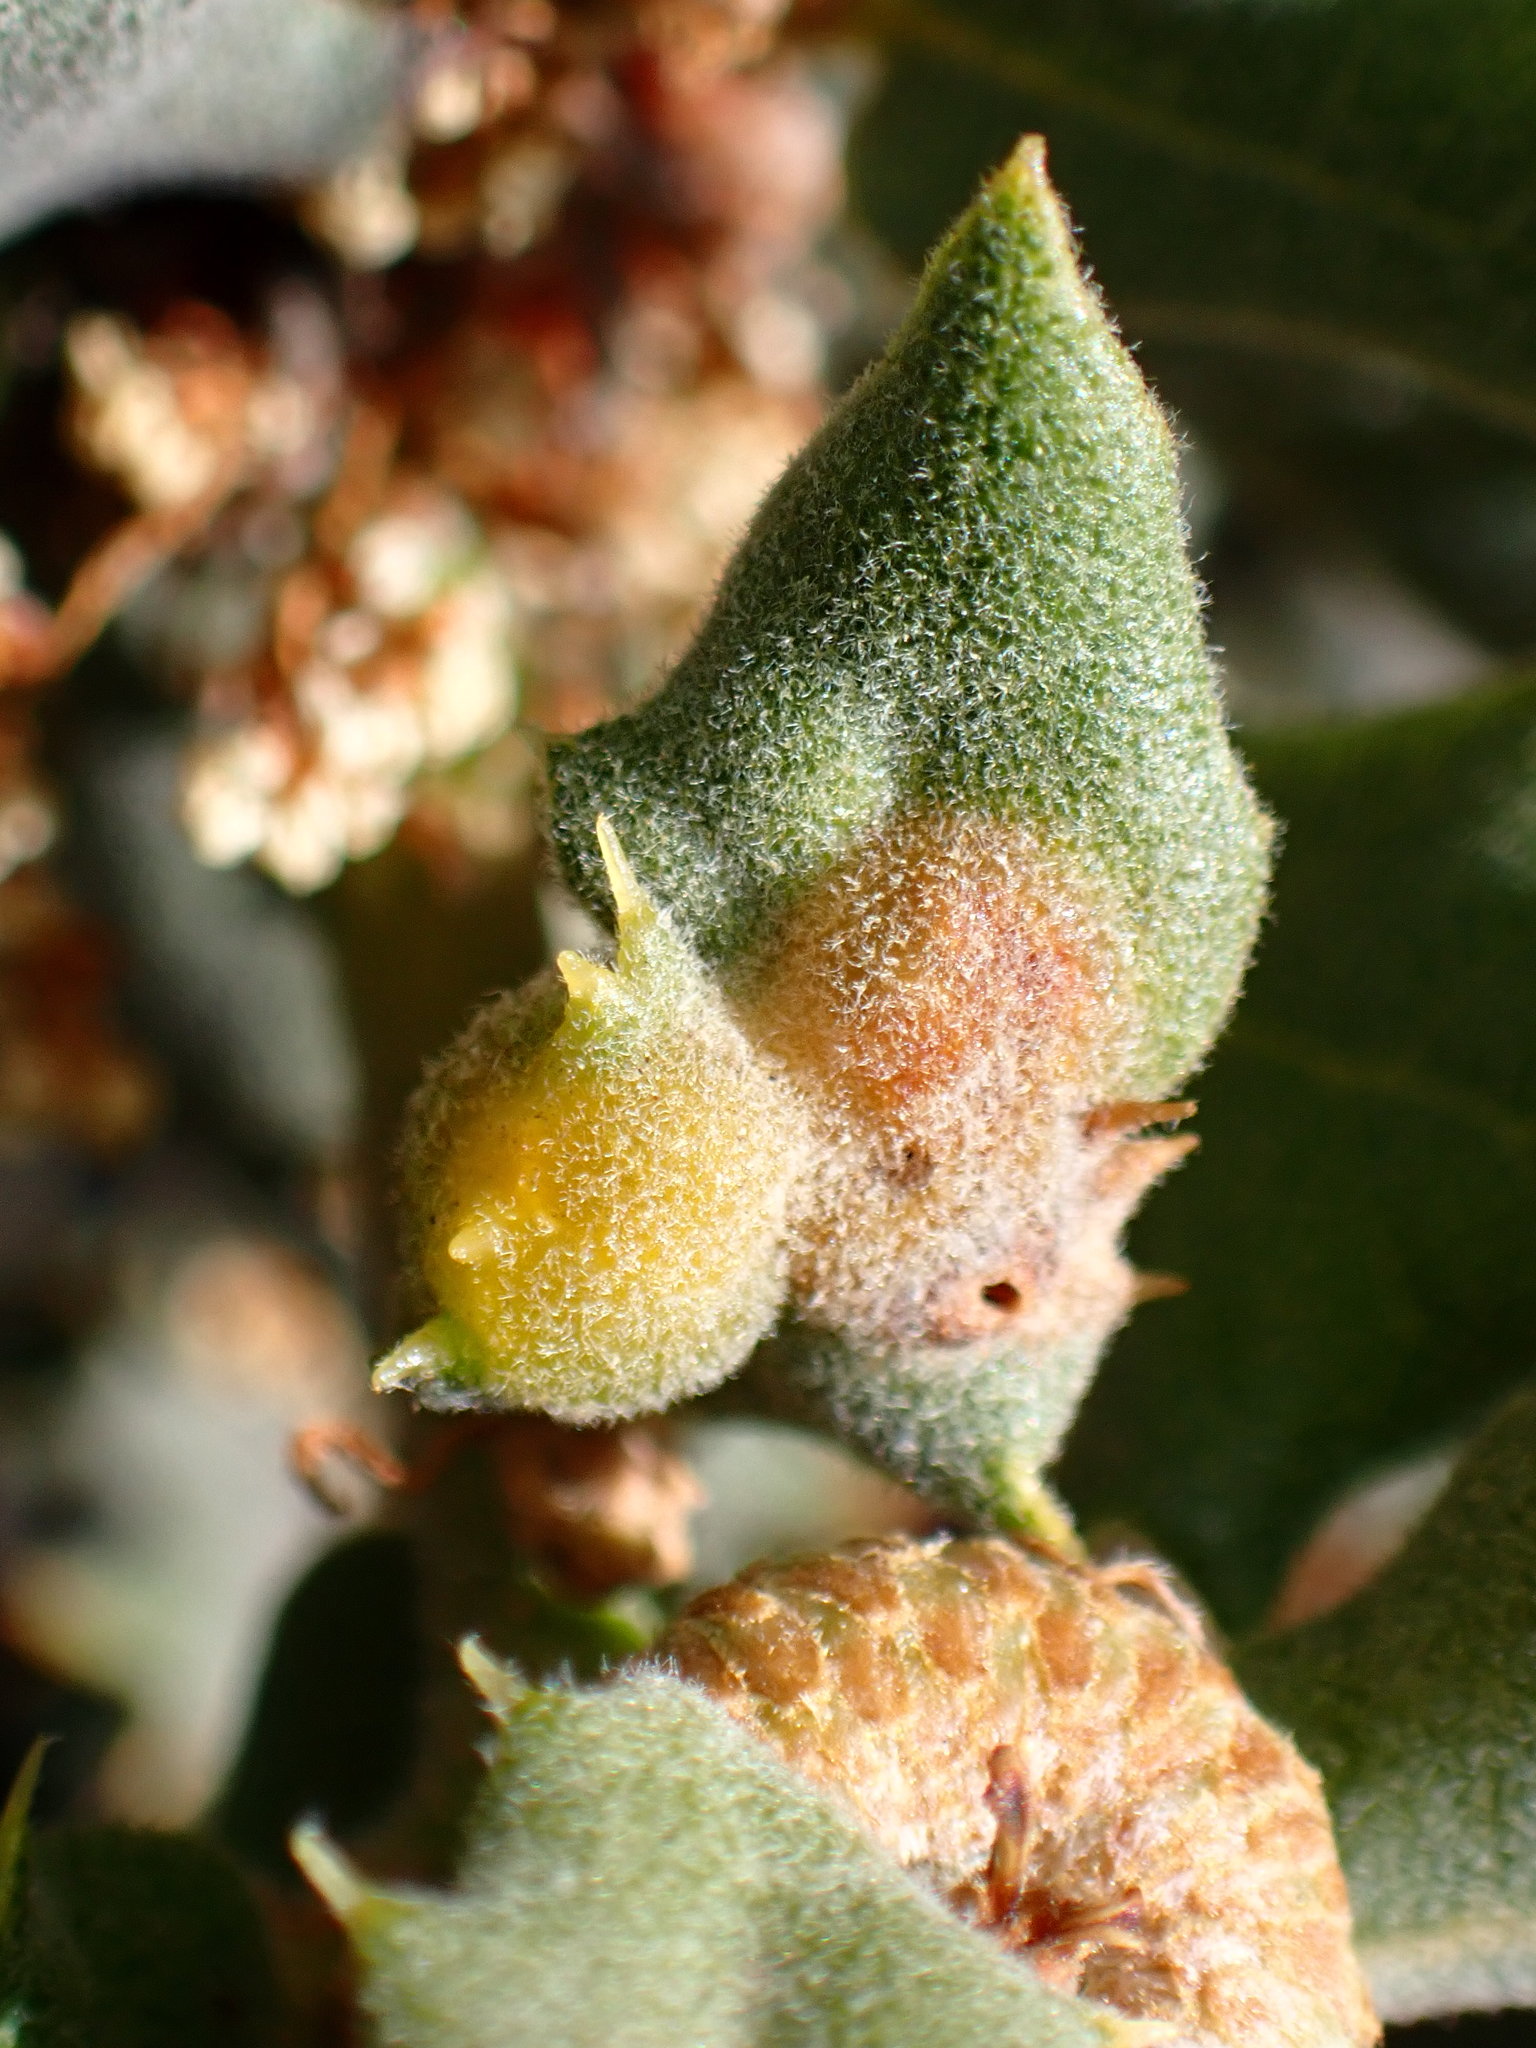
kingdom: Animalia
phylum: Arthropoda
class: Insecta
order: Hymenoptera
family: Cynipidae
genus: Neuroterus
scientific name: Neuroterus
